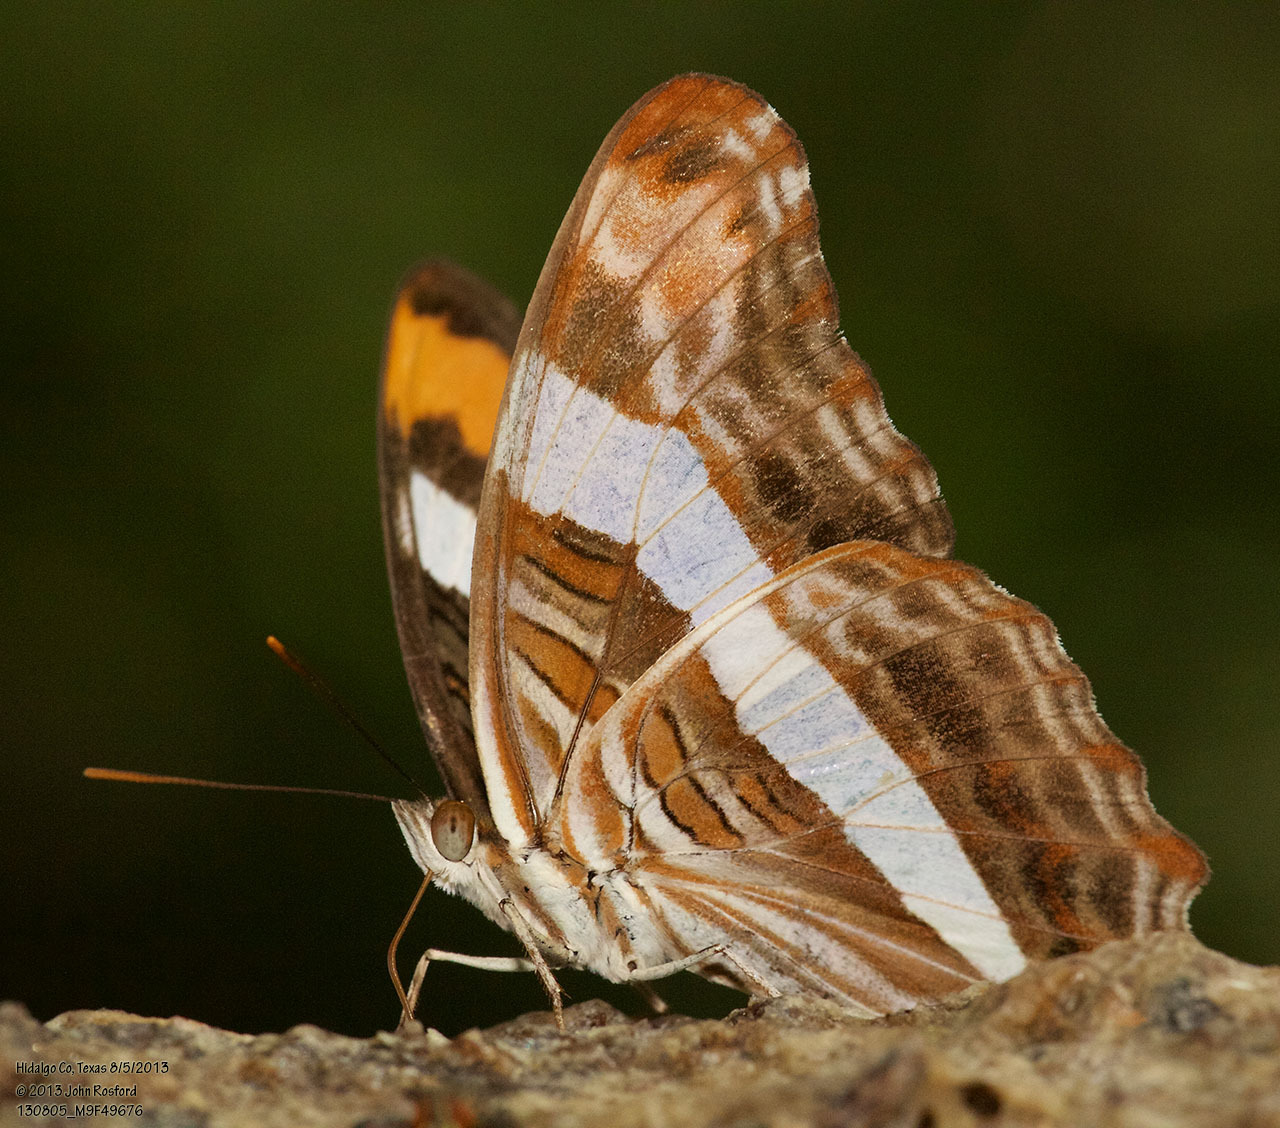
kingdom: Animalia
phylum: Arthropoda
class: Insecta
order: Lepidoptera
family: Nymphalidae
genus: Limenitis
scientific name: Limenitis fessonia
